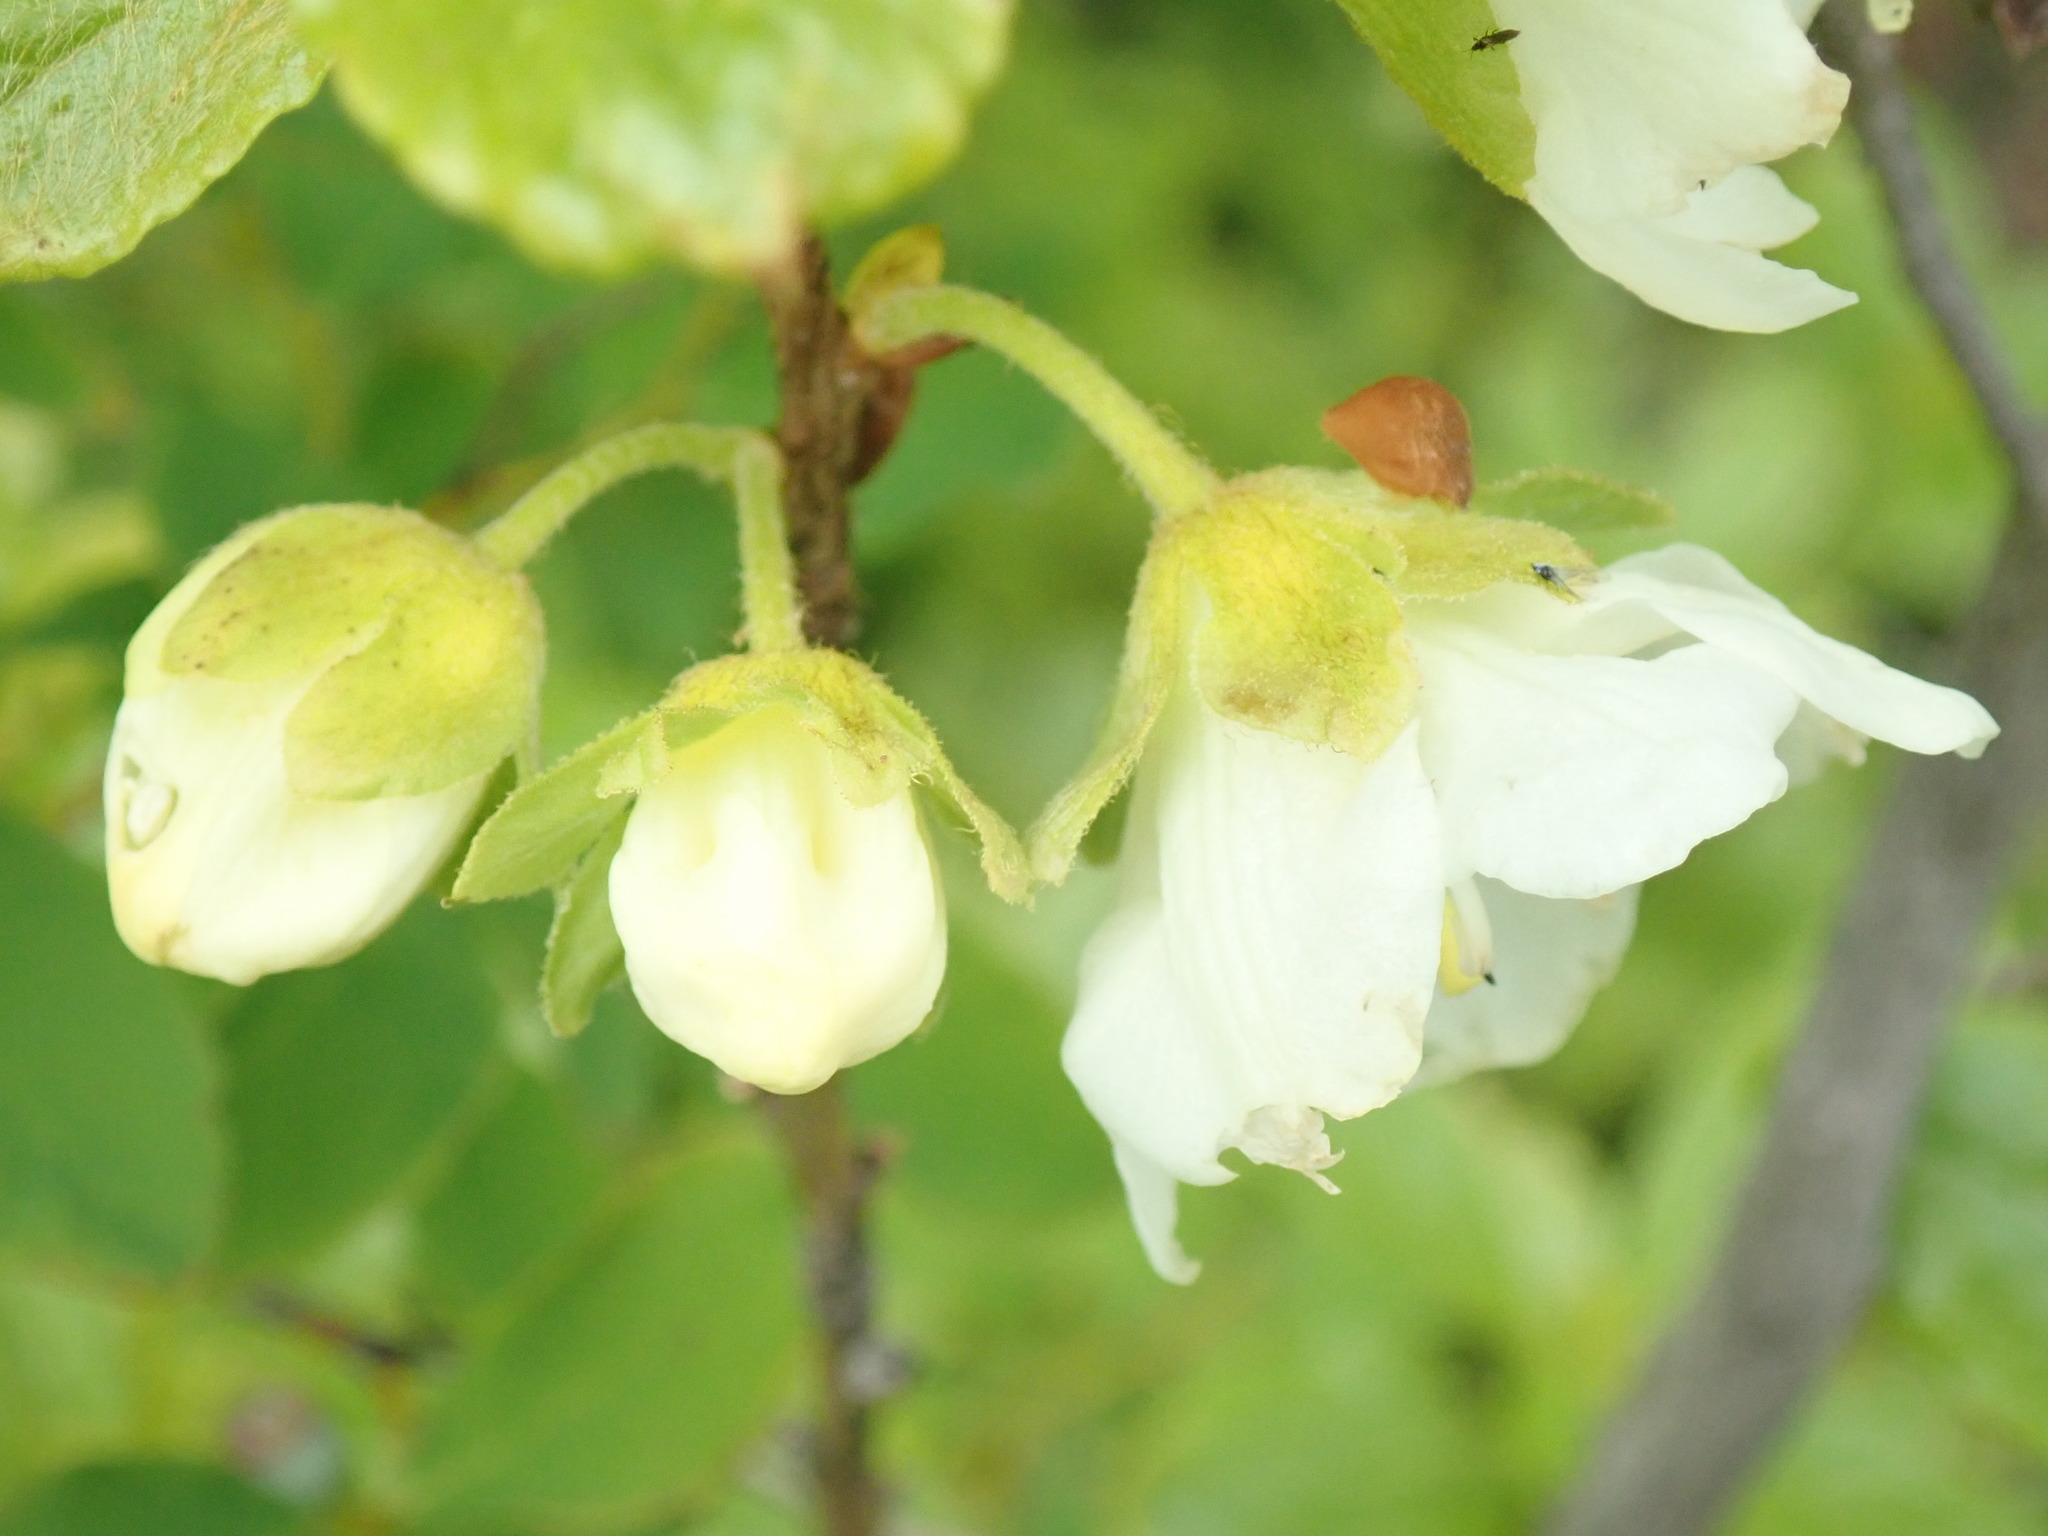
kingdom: Plantae
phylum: Tracheophyta
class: Magnoliopsida
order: Ericales
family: Ericaceae
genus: Rhododendron
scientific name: Rhododendron albiflorum
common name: White rhododendron
